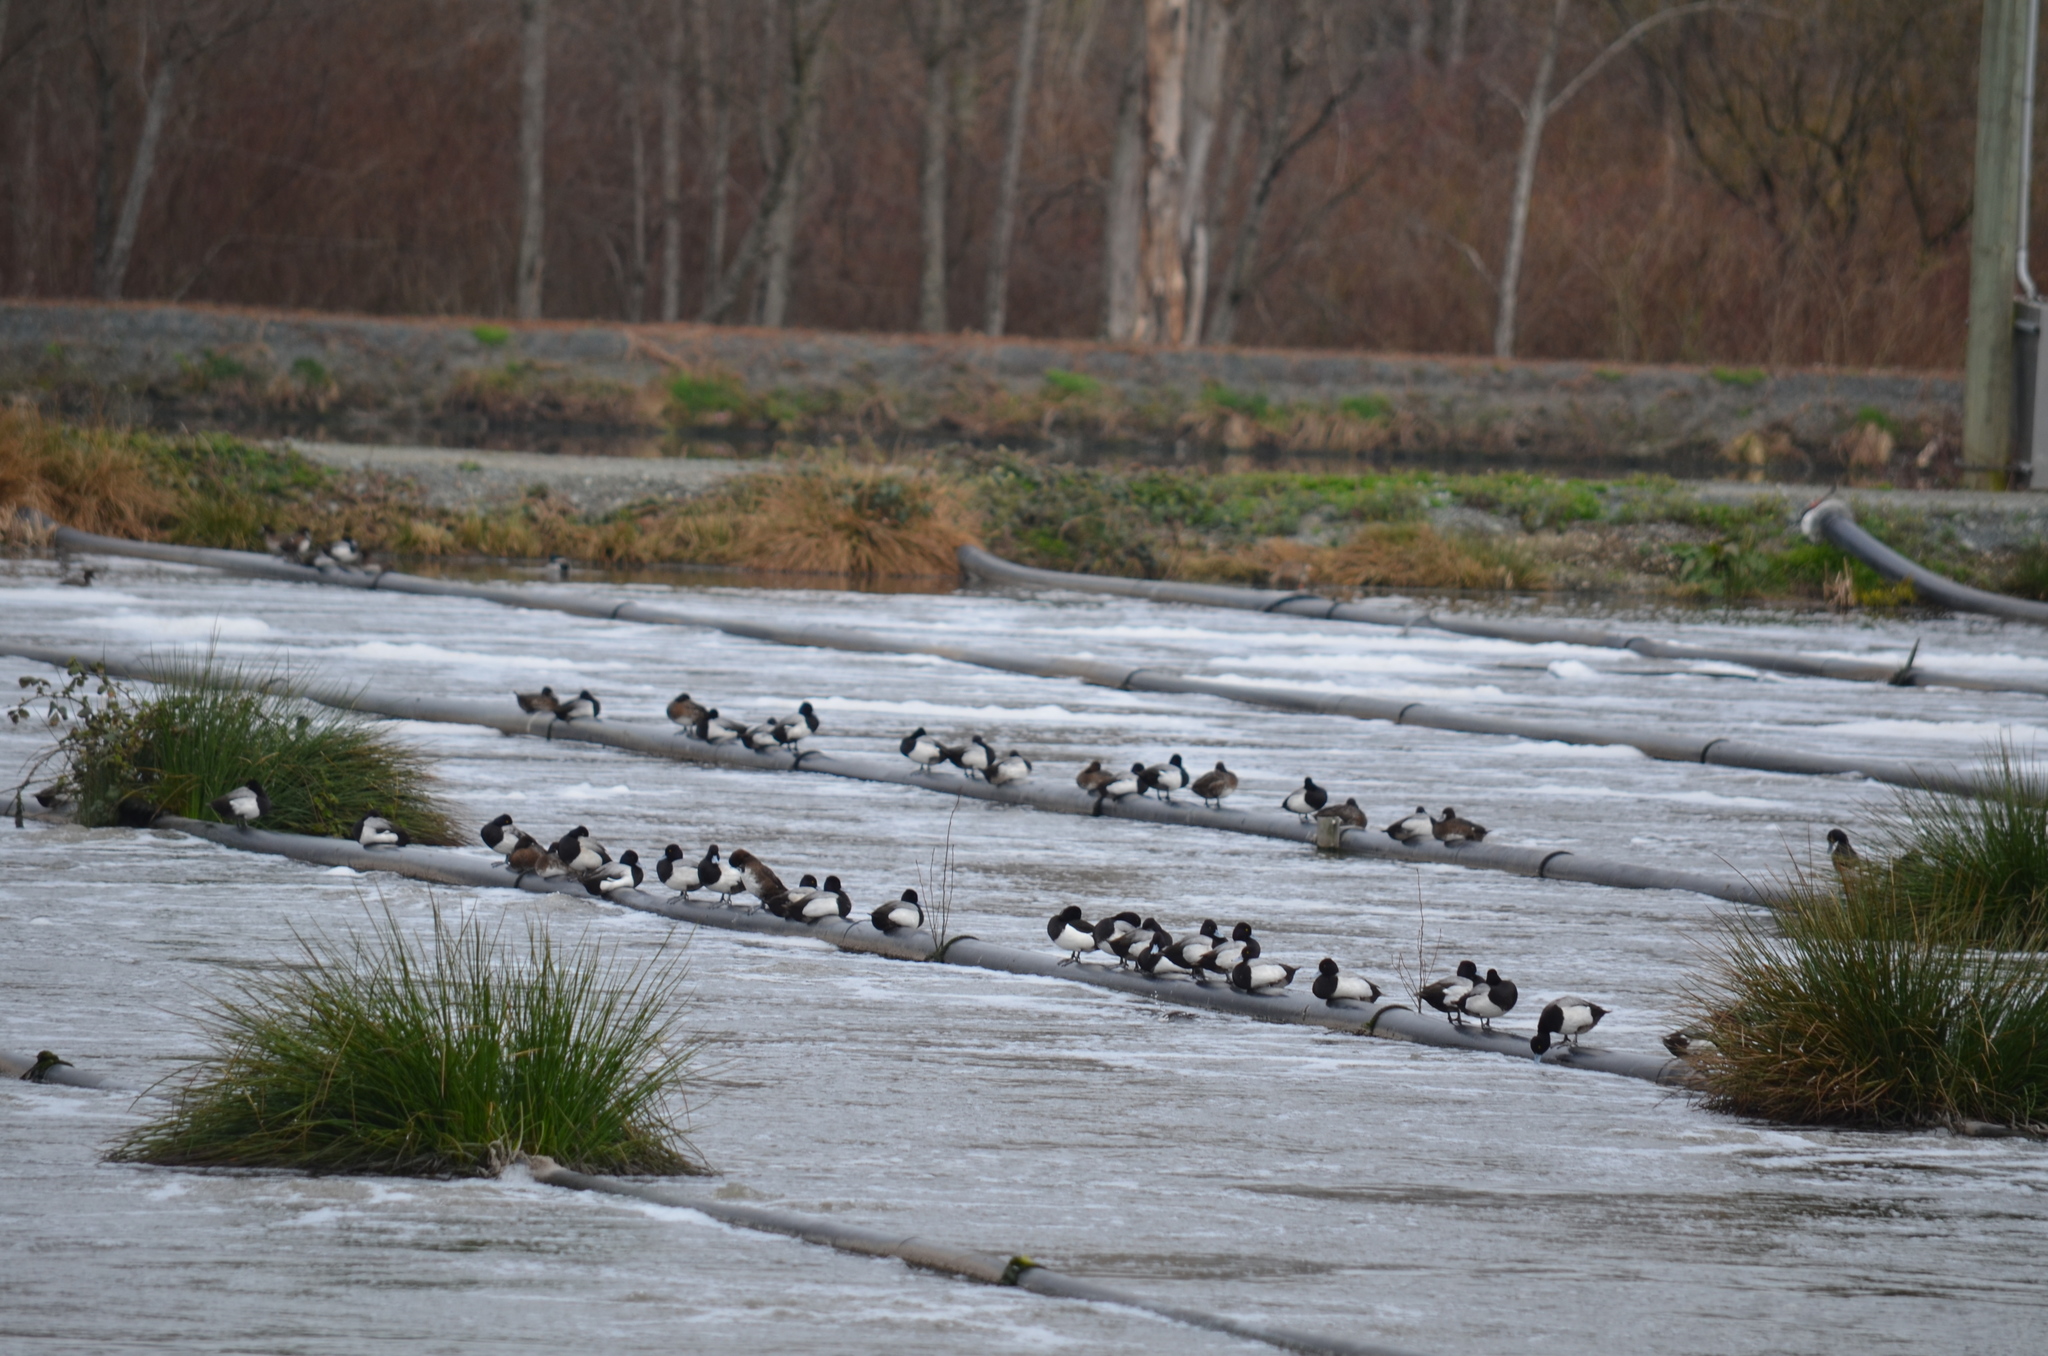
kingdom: Animalia
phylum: Chordata
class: Aves
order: Anseriformes
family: Anatidae
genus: Aythya
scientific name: Aythya fuligula
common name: Tufted duck
